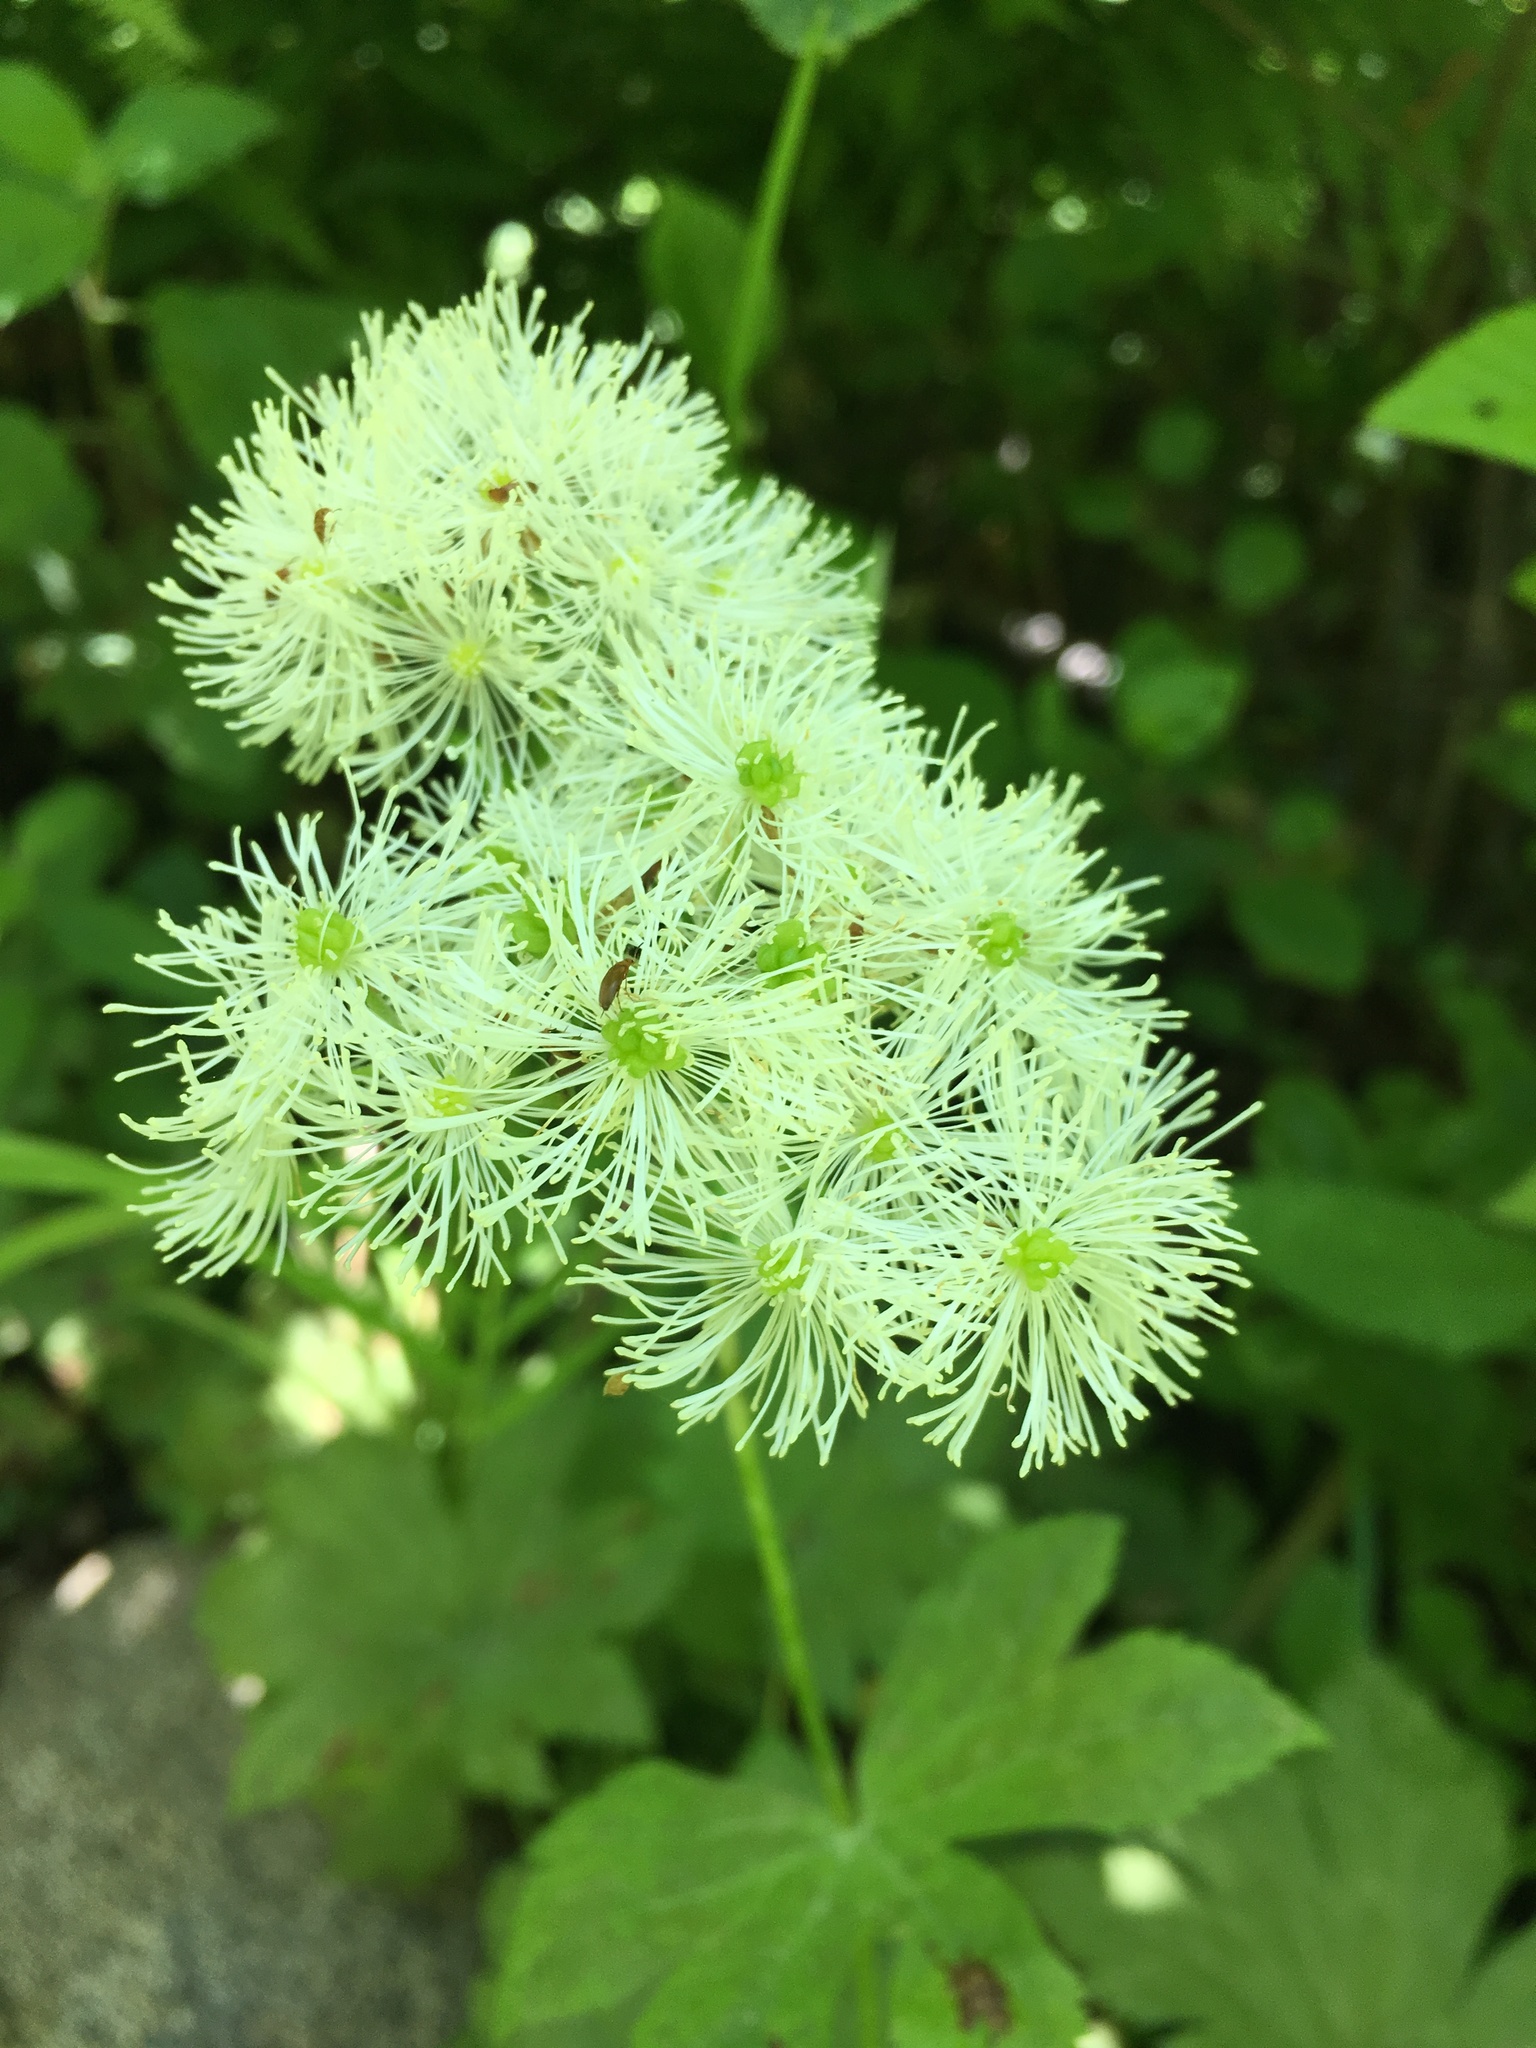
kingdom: Plantae
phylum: Tracheophyta
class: Magnoliopsida
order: Ranunculales
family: Ranunculaceae
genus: Trautvetteria
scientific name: Trautvetteria carolinensis
